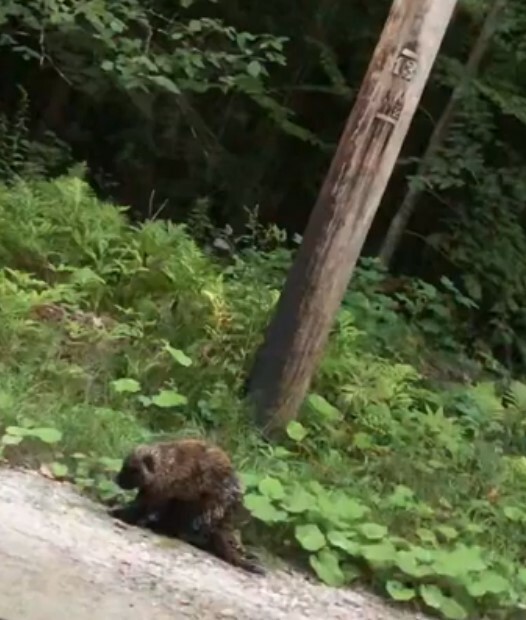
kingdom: Animalia
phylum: Chordata
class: Mammalia
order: Rodentia
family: Erethizontidae
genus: Erethizon
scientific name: Erethizon dorsatus
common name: North american porcupine
